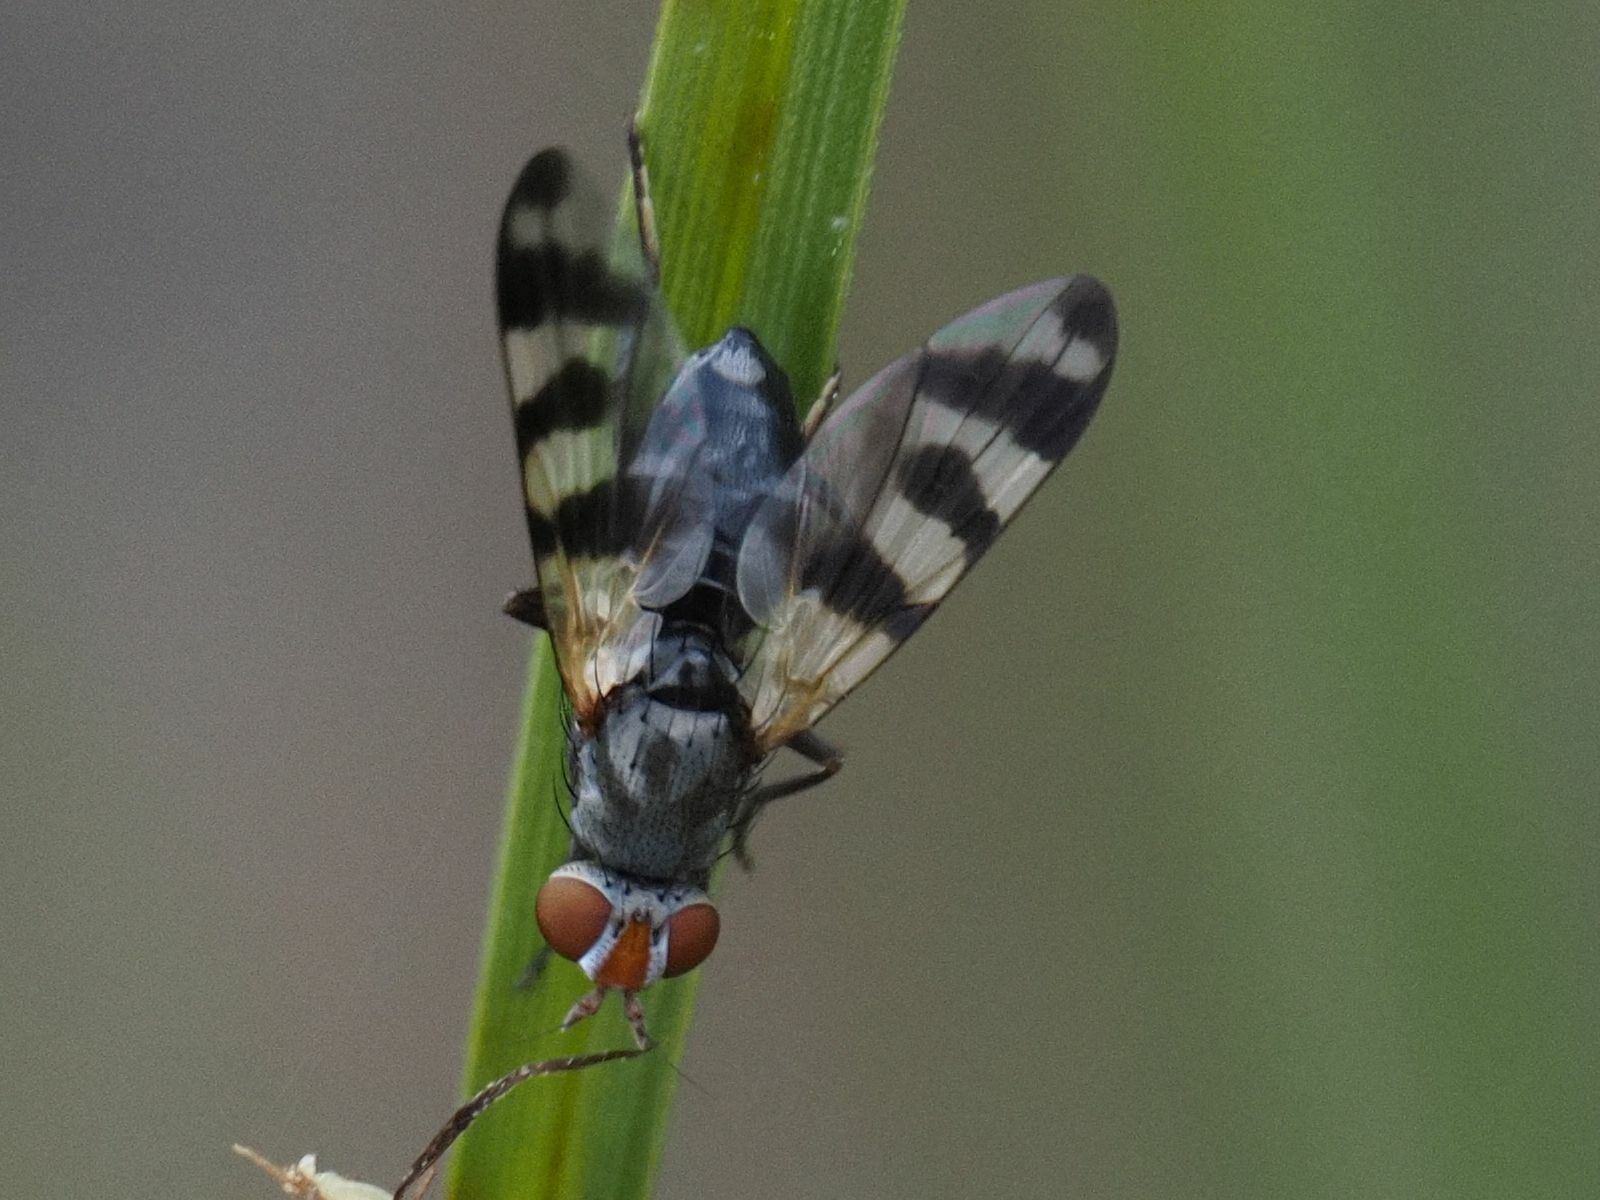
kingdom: Animalia
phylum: Arthropoda
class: Insecta
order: Diptera
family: Ulidiidae
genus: Ceroxys
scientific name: Ceroxys urticae
